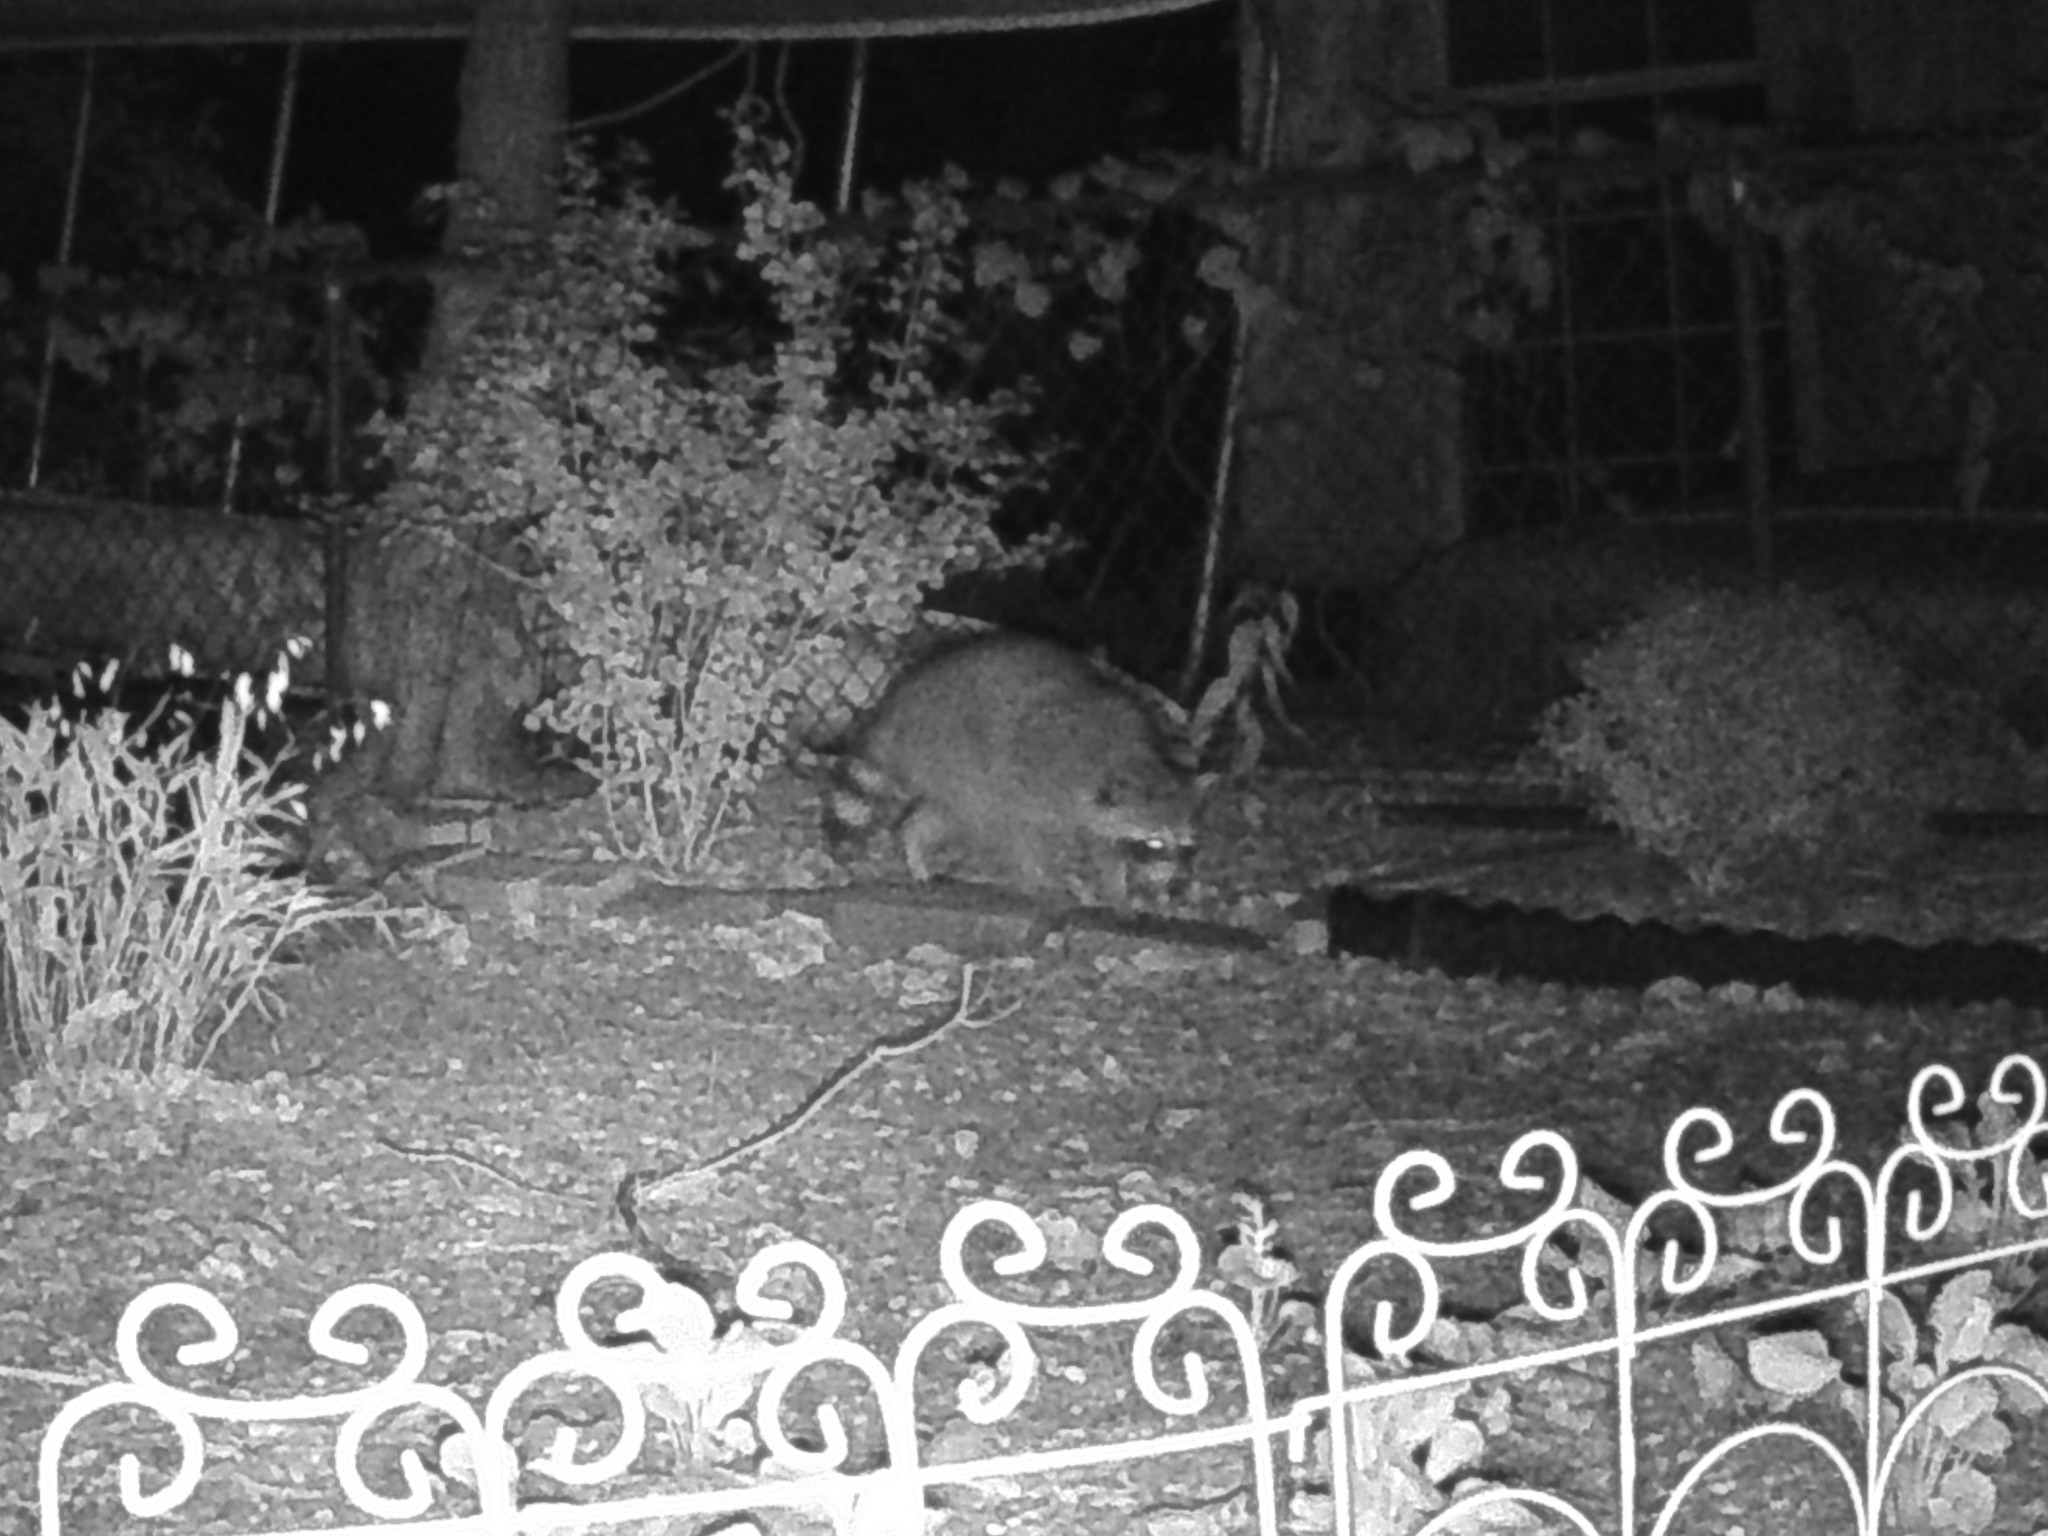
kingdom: Animalia
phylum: Chordata
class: Mammalia
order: Carnivora
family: Procyonidae
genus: Procyon
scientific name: Procyon lotor
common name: Raccoon
